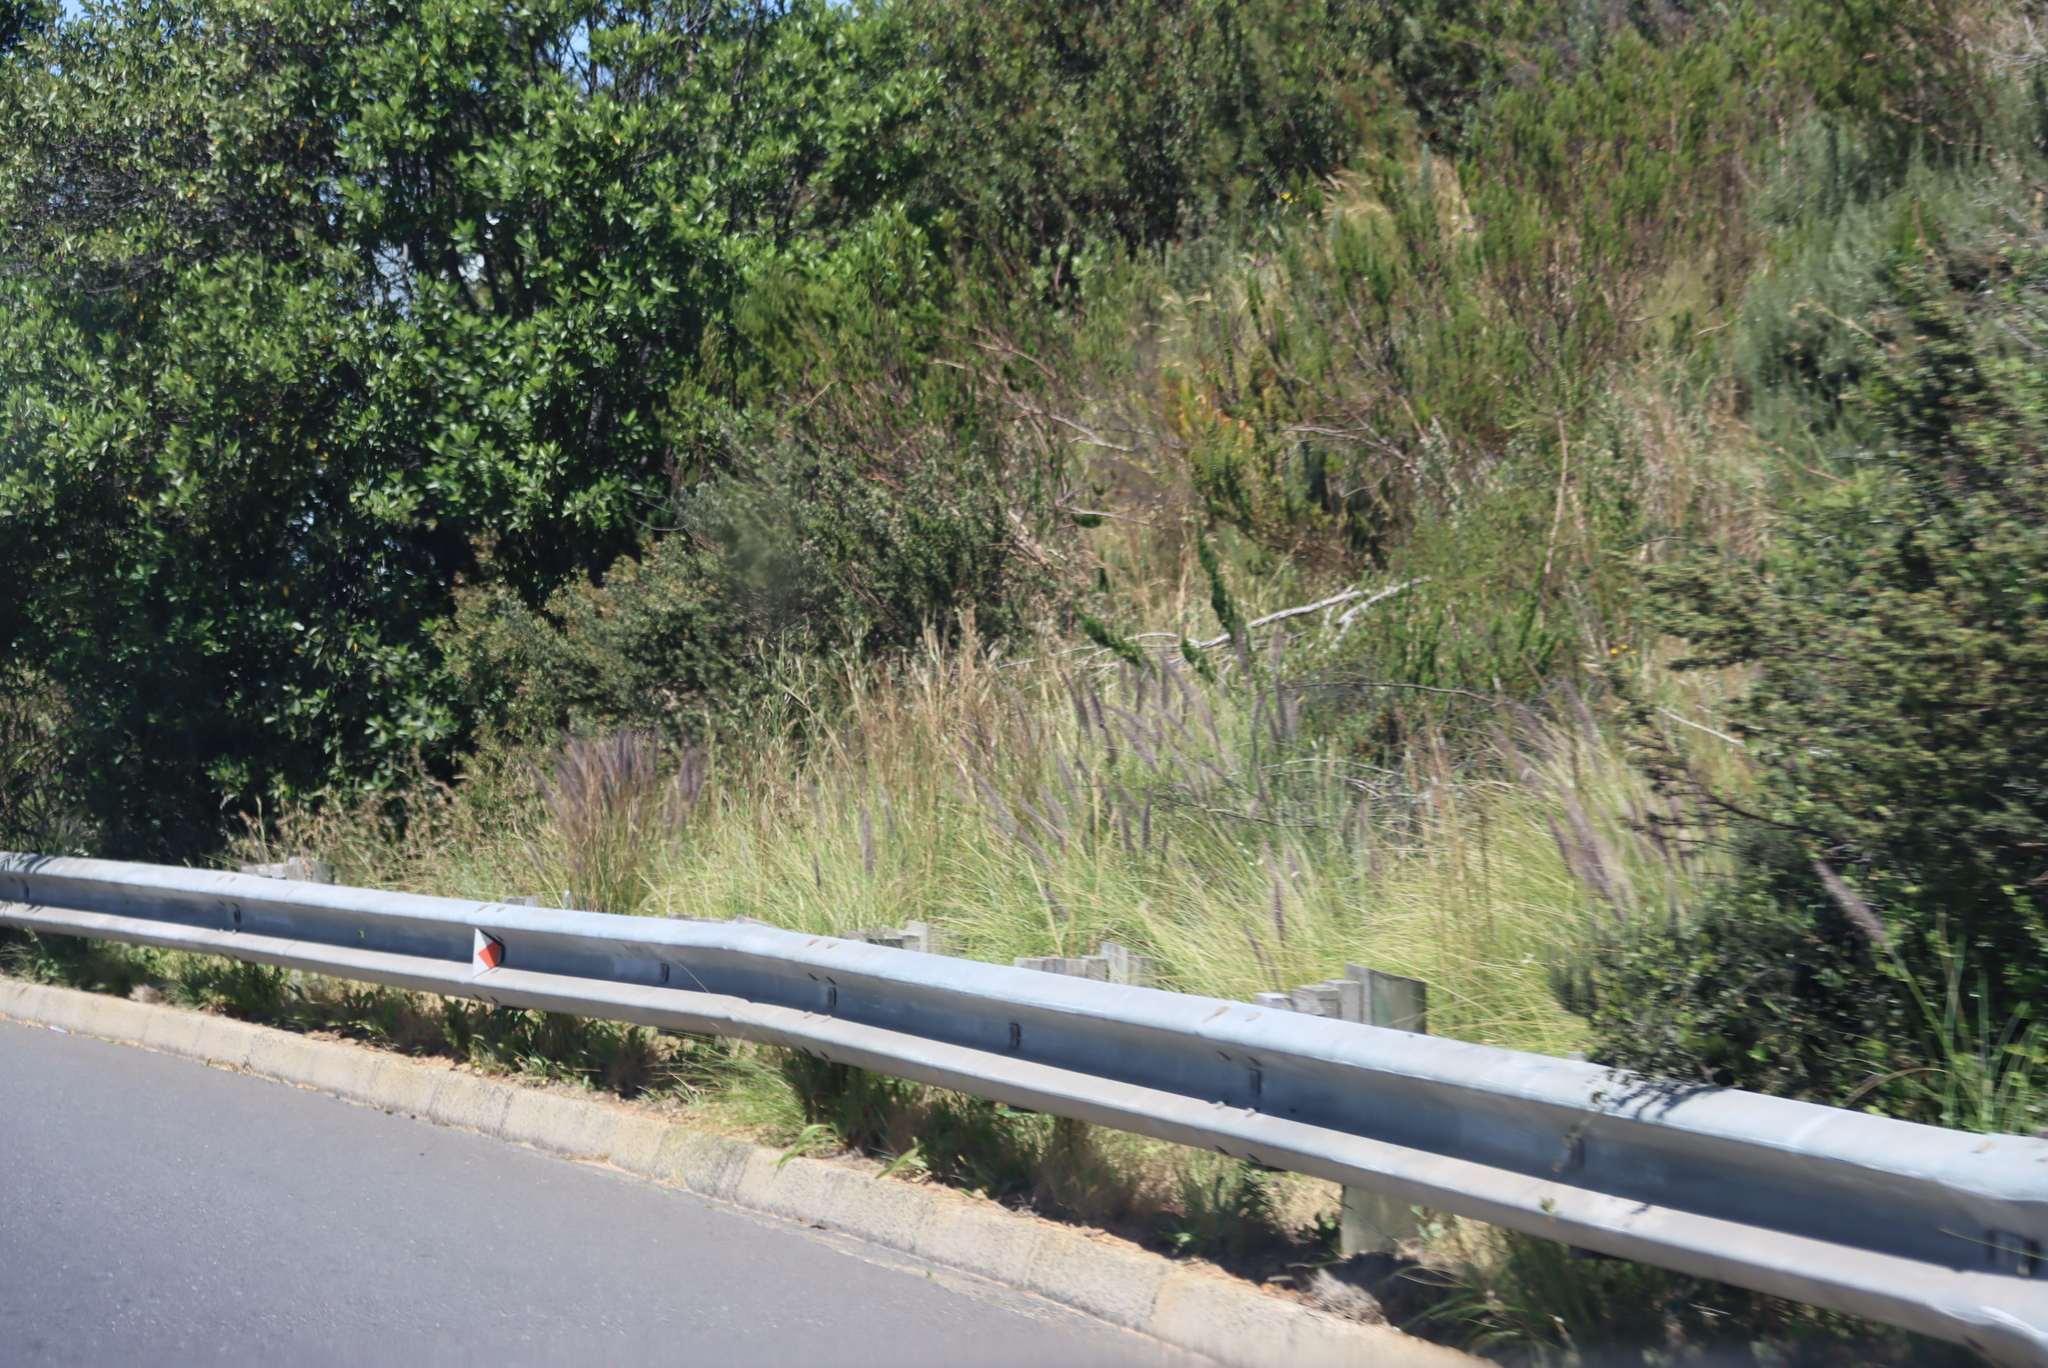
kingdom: Plantae
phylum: Tracheophyta
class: Liliopsida
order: Poales
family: Poaceae
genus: Cenchrus
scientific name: Cenchrus setaceus
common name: Crimson fountaingrass
